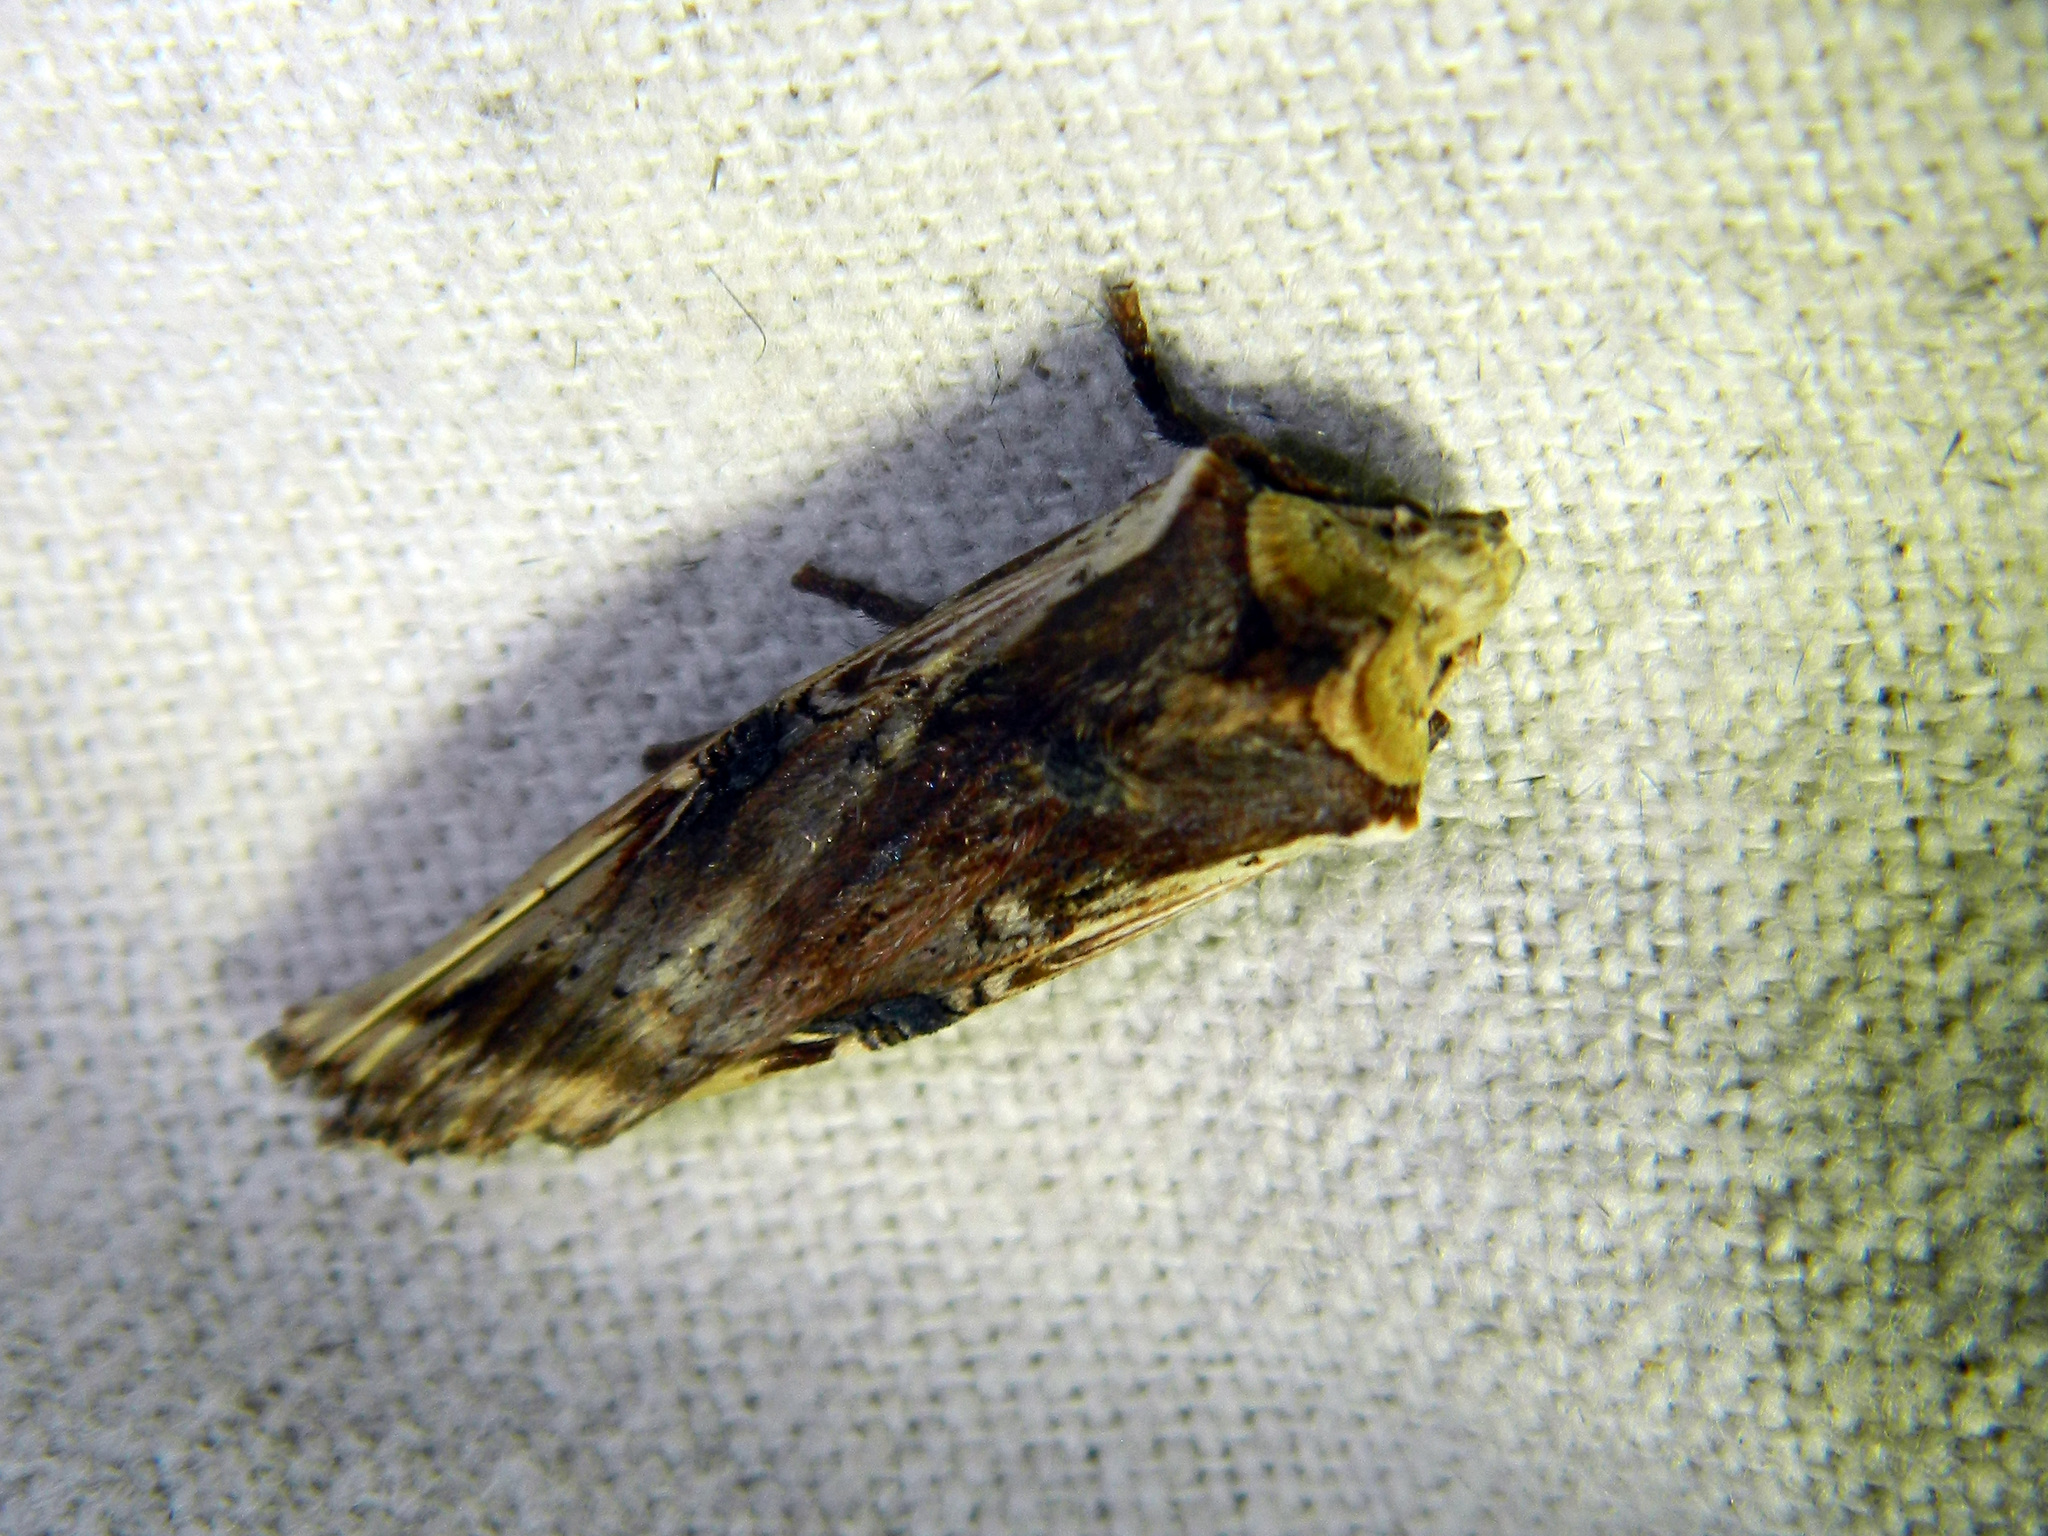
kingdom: Animalia
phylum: Arthropoda
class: Insecta
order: Lepidoptera
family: Noctuidae
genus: Xylena
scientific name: Xylena curvimacula
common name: Dot-and-dash swordgrass moth
